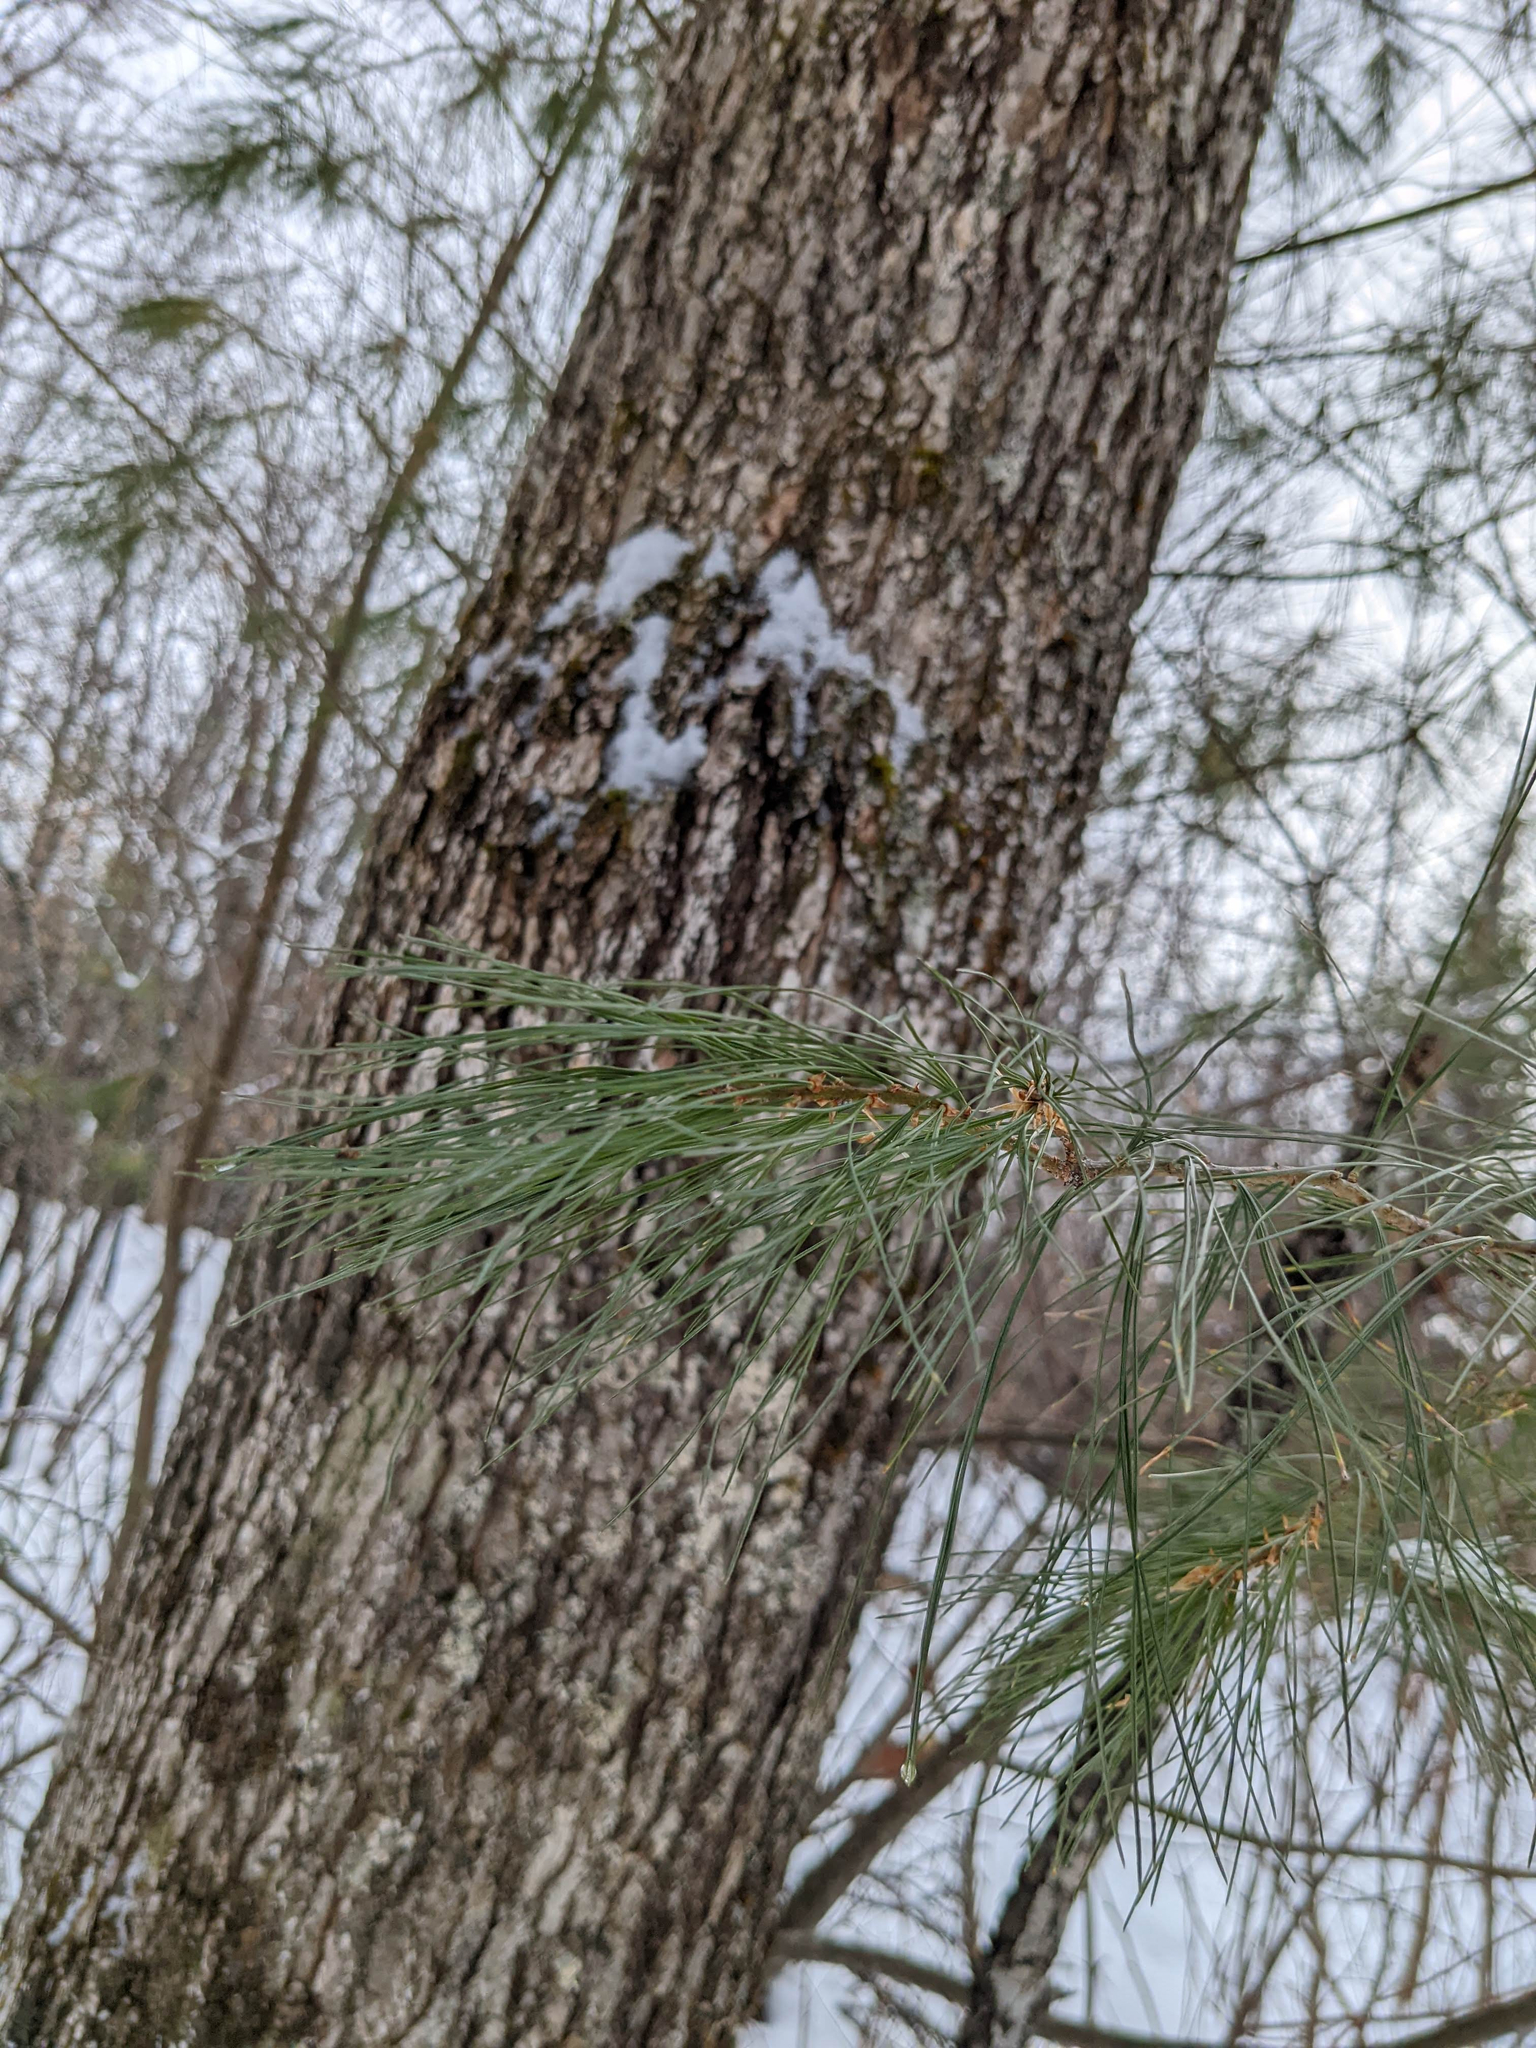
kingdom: Plantae
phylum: Tracheophyta
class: Pinopsida
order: Pinales
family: Pinaceae
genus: Pinus
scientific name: Pinus strobus
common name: Weymouth pine
